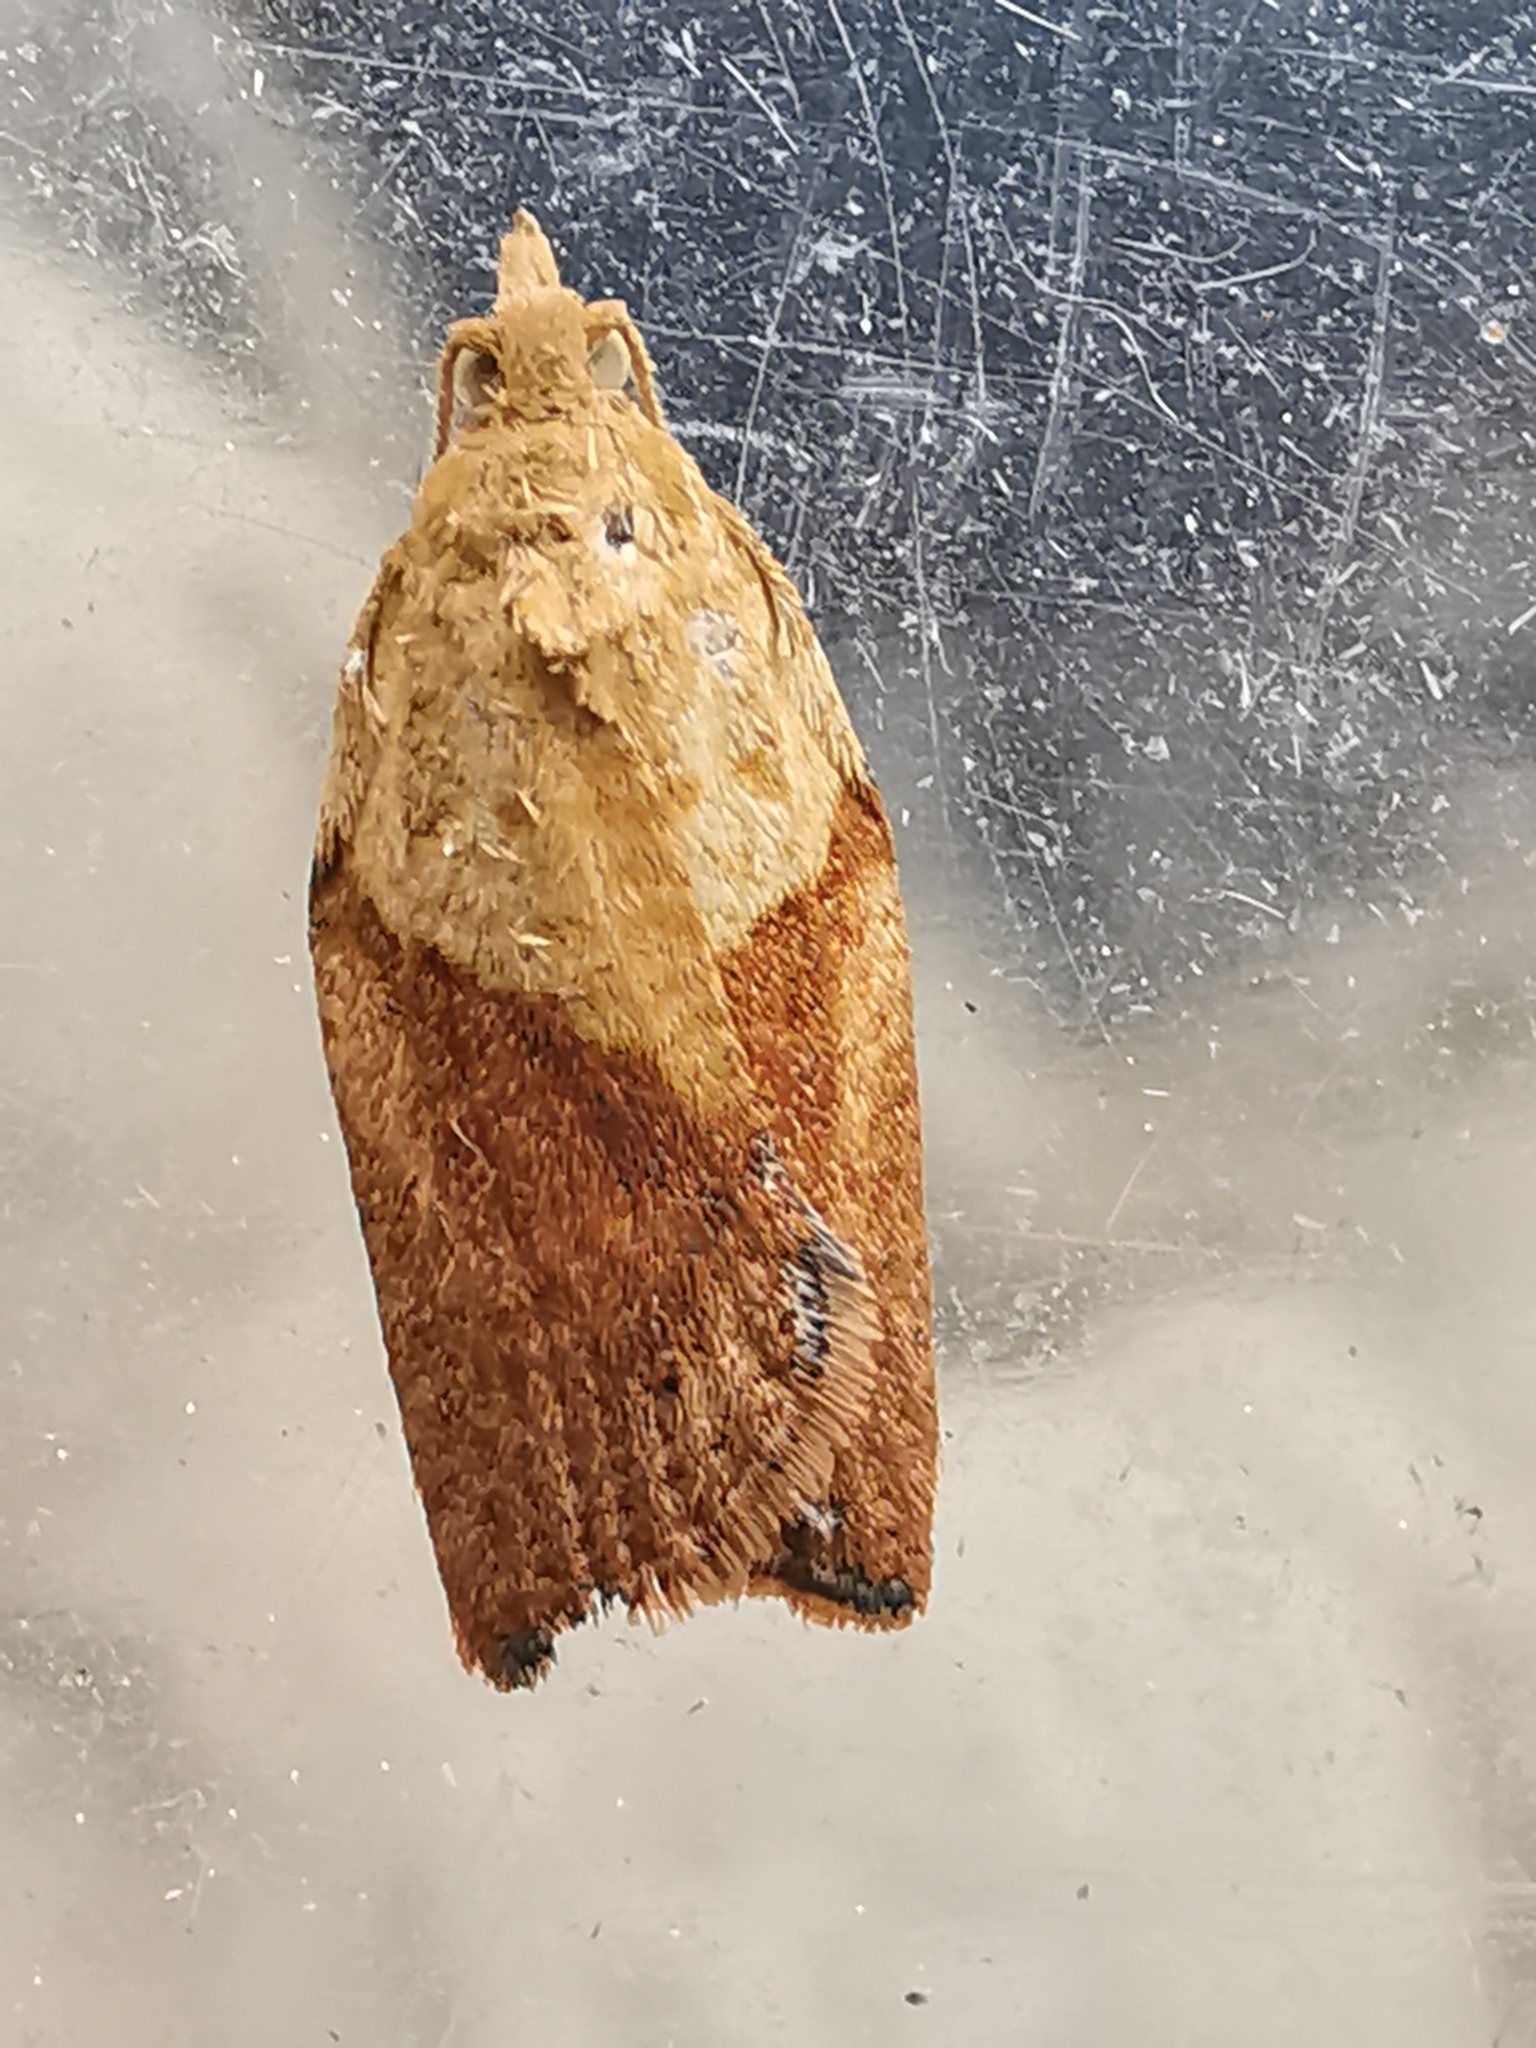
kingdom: Animalia
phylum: Arthropoda
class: Insecta
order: Lepidoptera
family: Tortricidae
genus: Epiphyas
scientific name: Epiphyas postvittana
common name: Light brown apple moth
